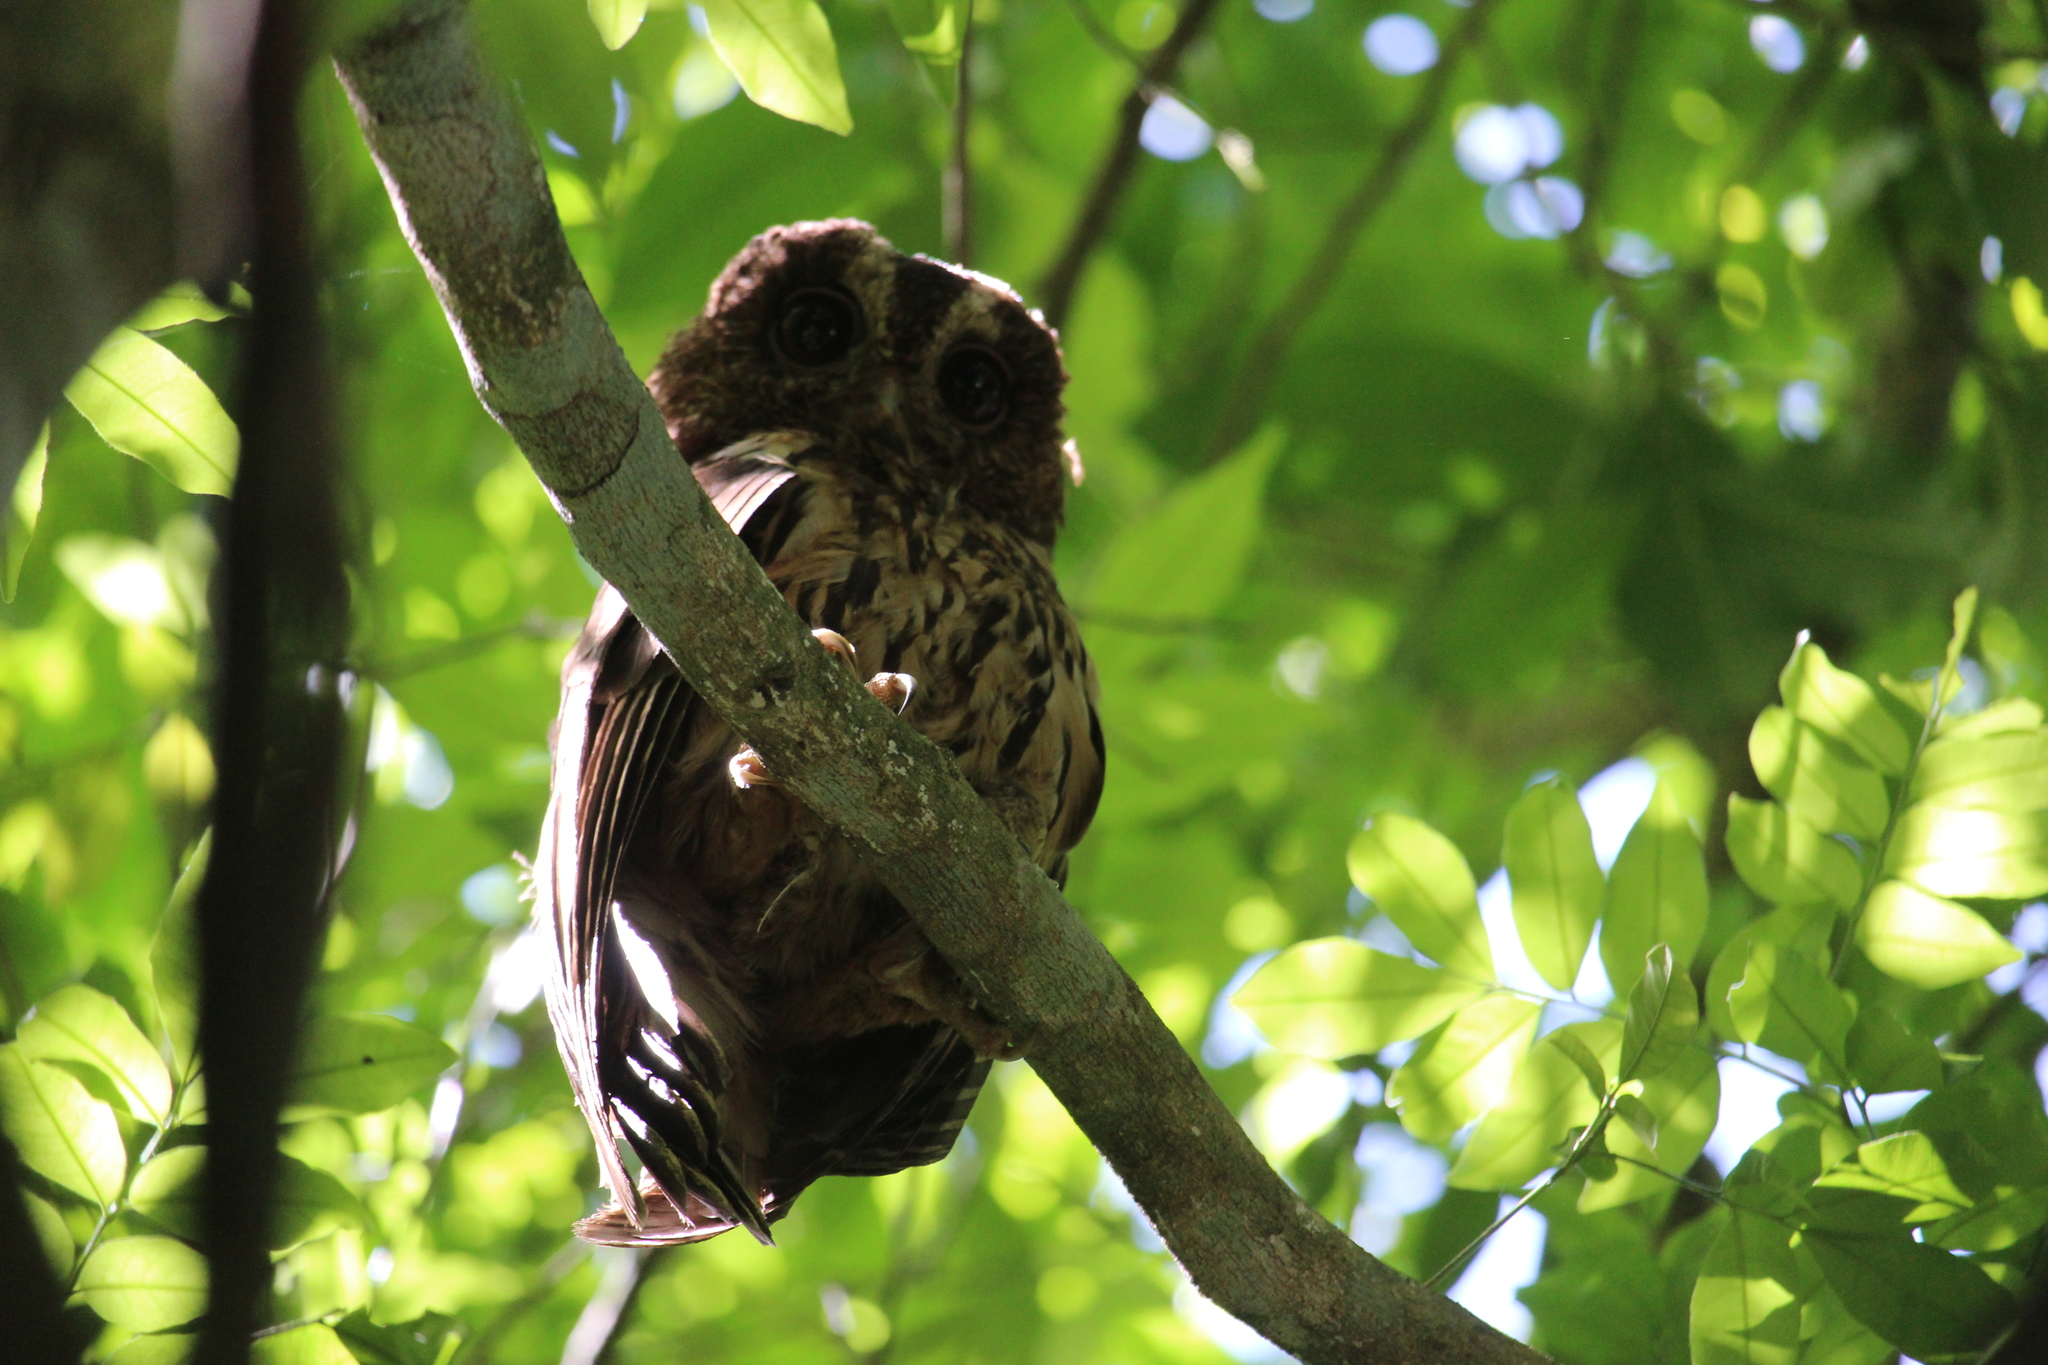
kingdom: Animalia
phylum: Chordata
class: Aves
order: Strigiformes
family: Strigidae
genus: Strix
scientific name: Strix virgata
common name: Mottled owl
